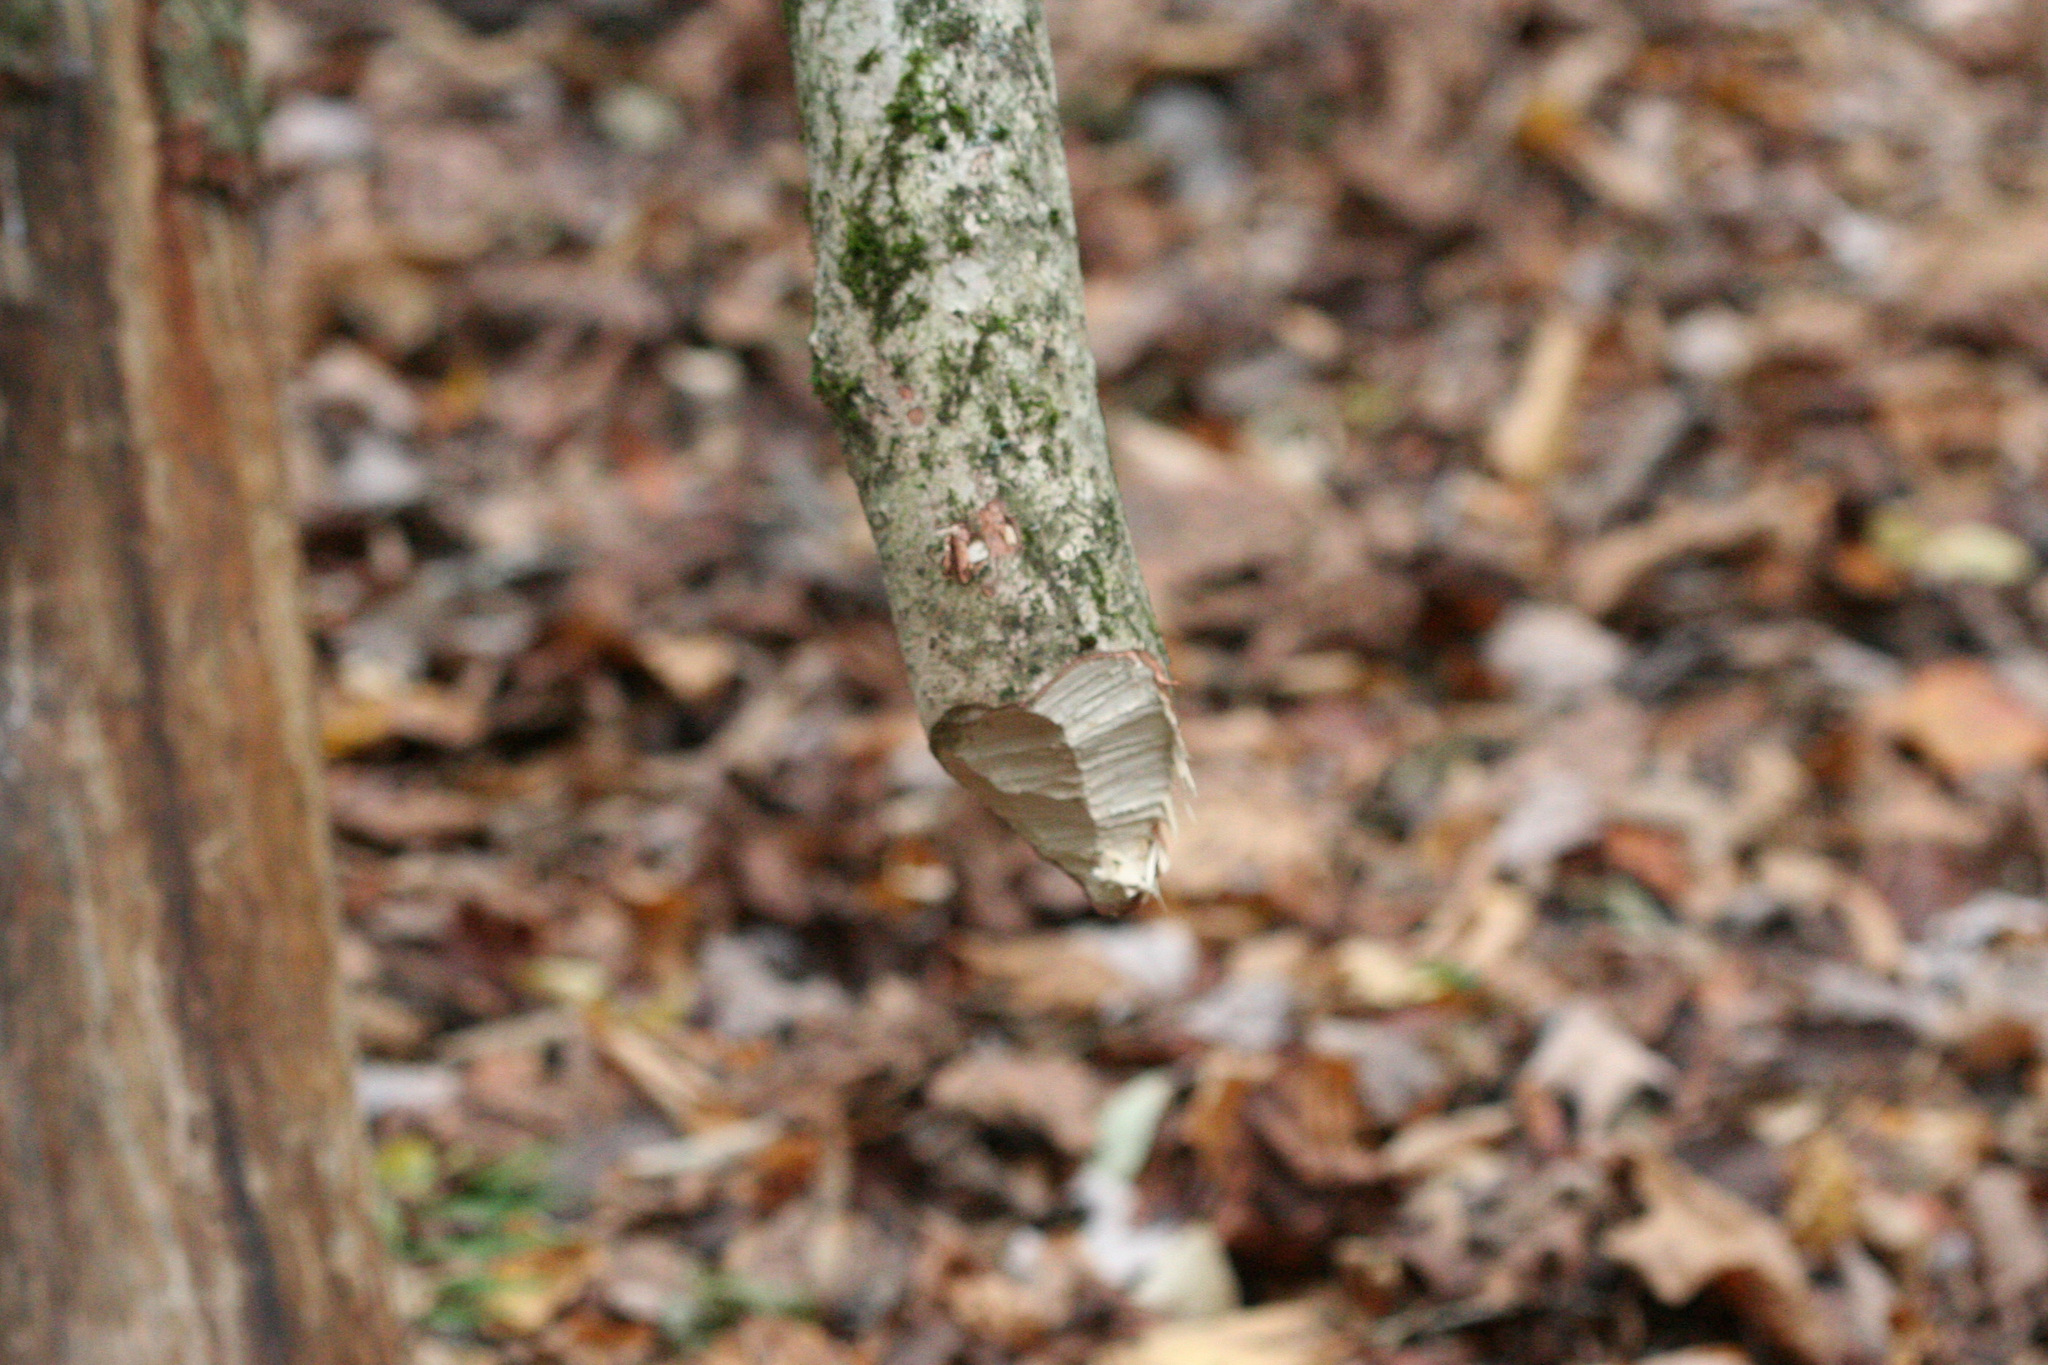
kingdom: Animalia
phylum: Chordata
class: Mammalia
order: Rodentia
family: Castoridae
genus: Castor
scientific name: Castor canadensis
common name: American beaver
